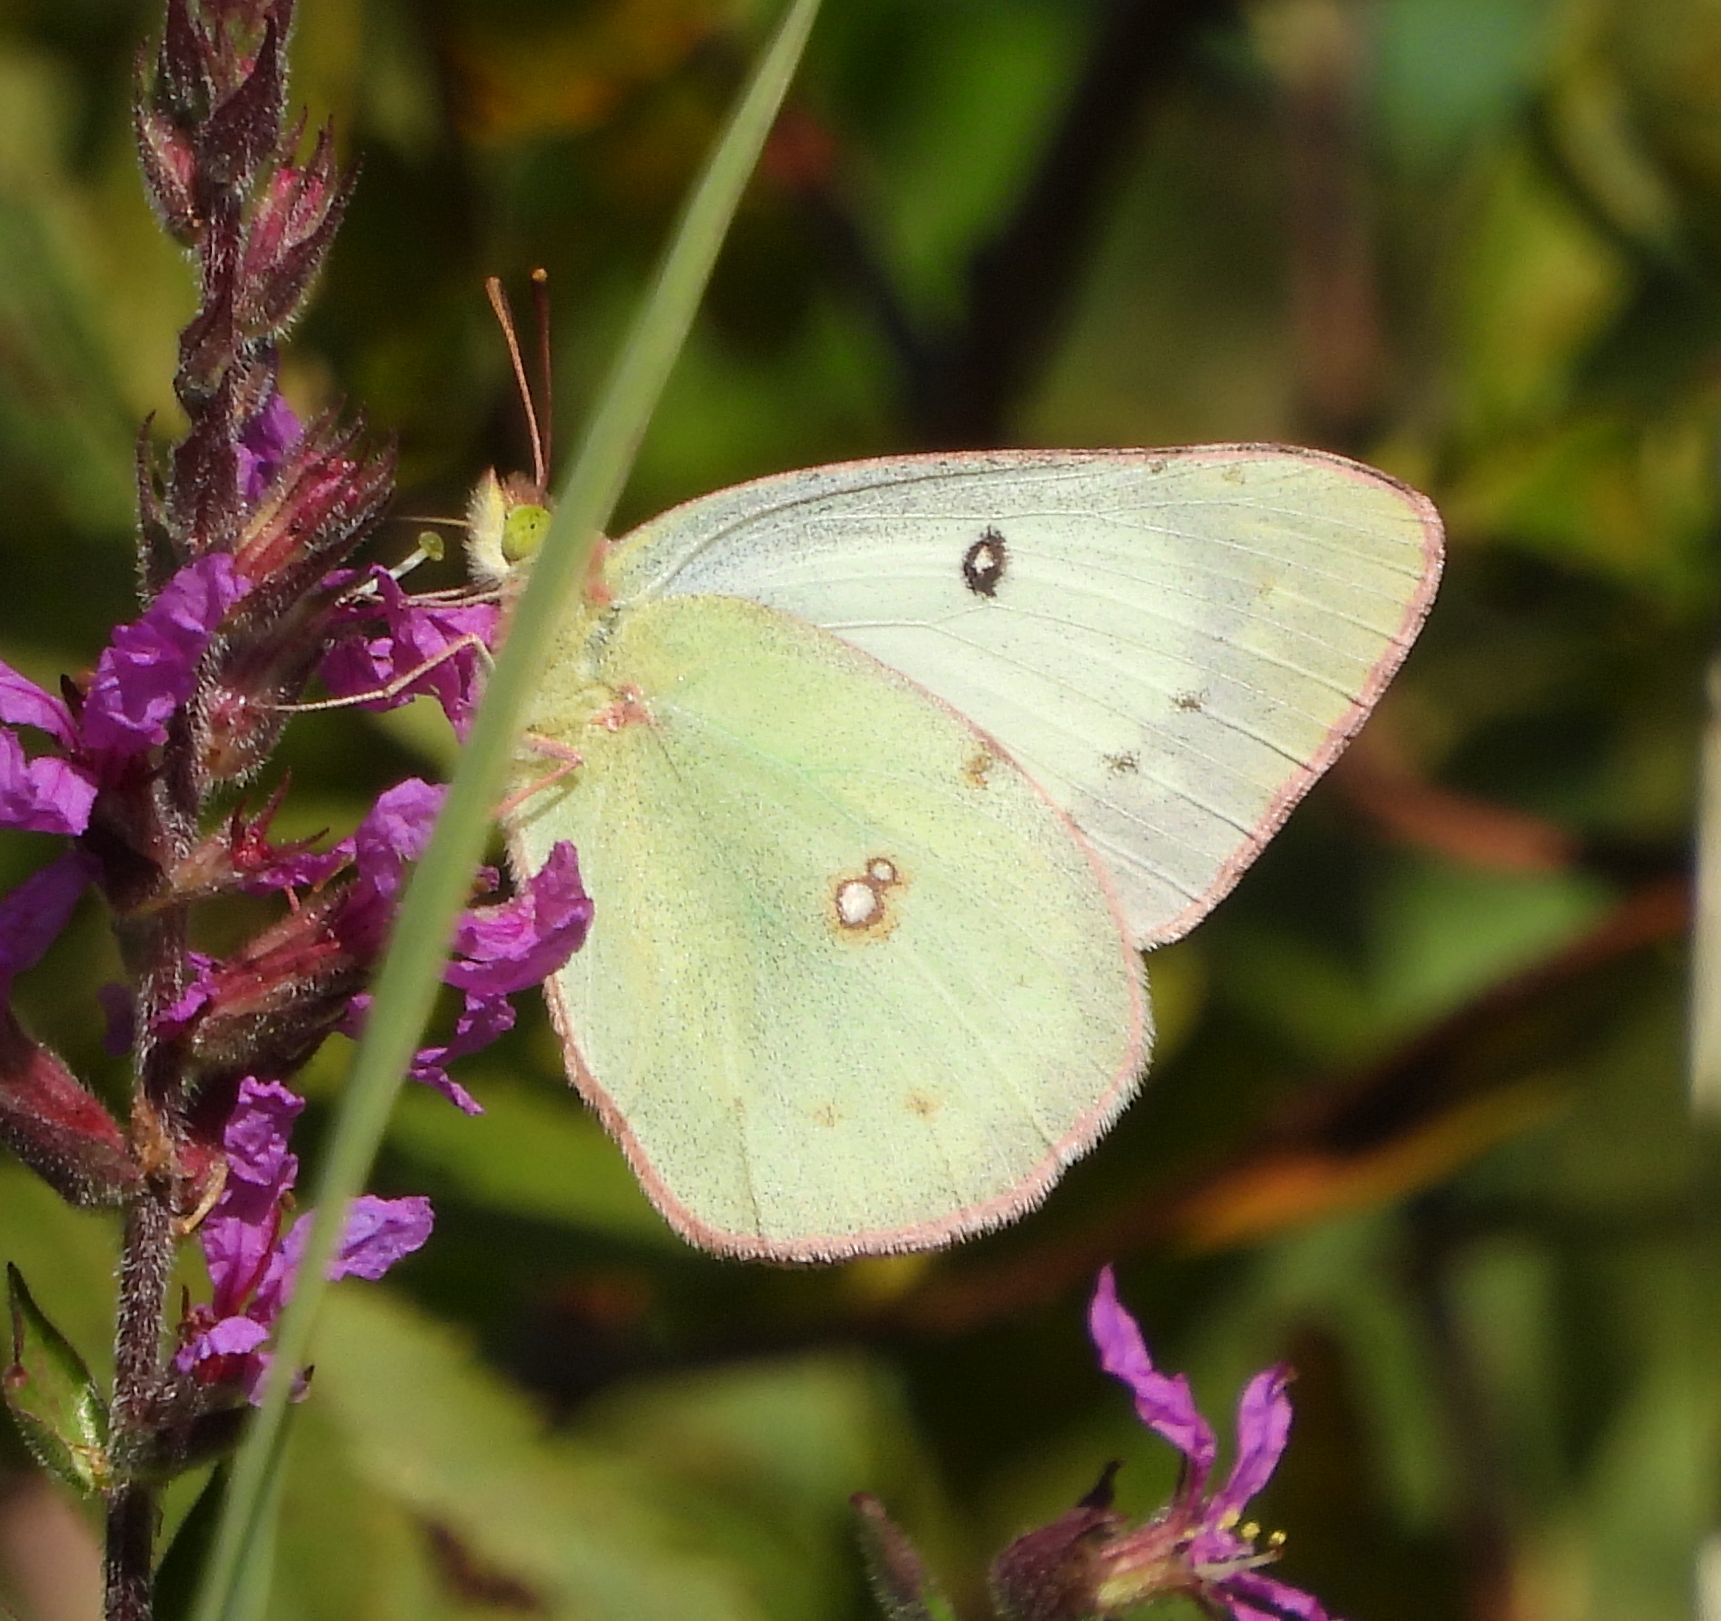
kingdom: Animalia
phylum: Arthropoda
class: Insecta
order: Lepidoptera
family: Pieridae
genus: Colias
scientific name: Colias philodice
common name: Clouded sulphur
